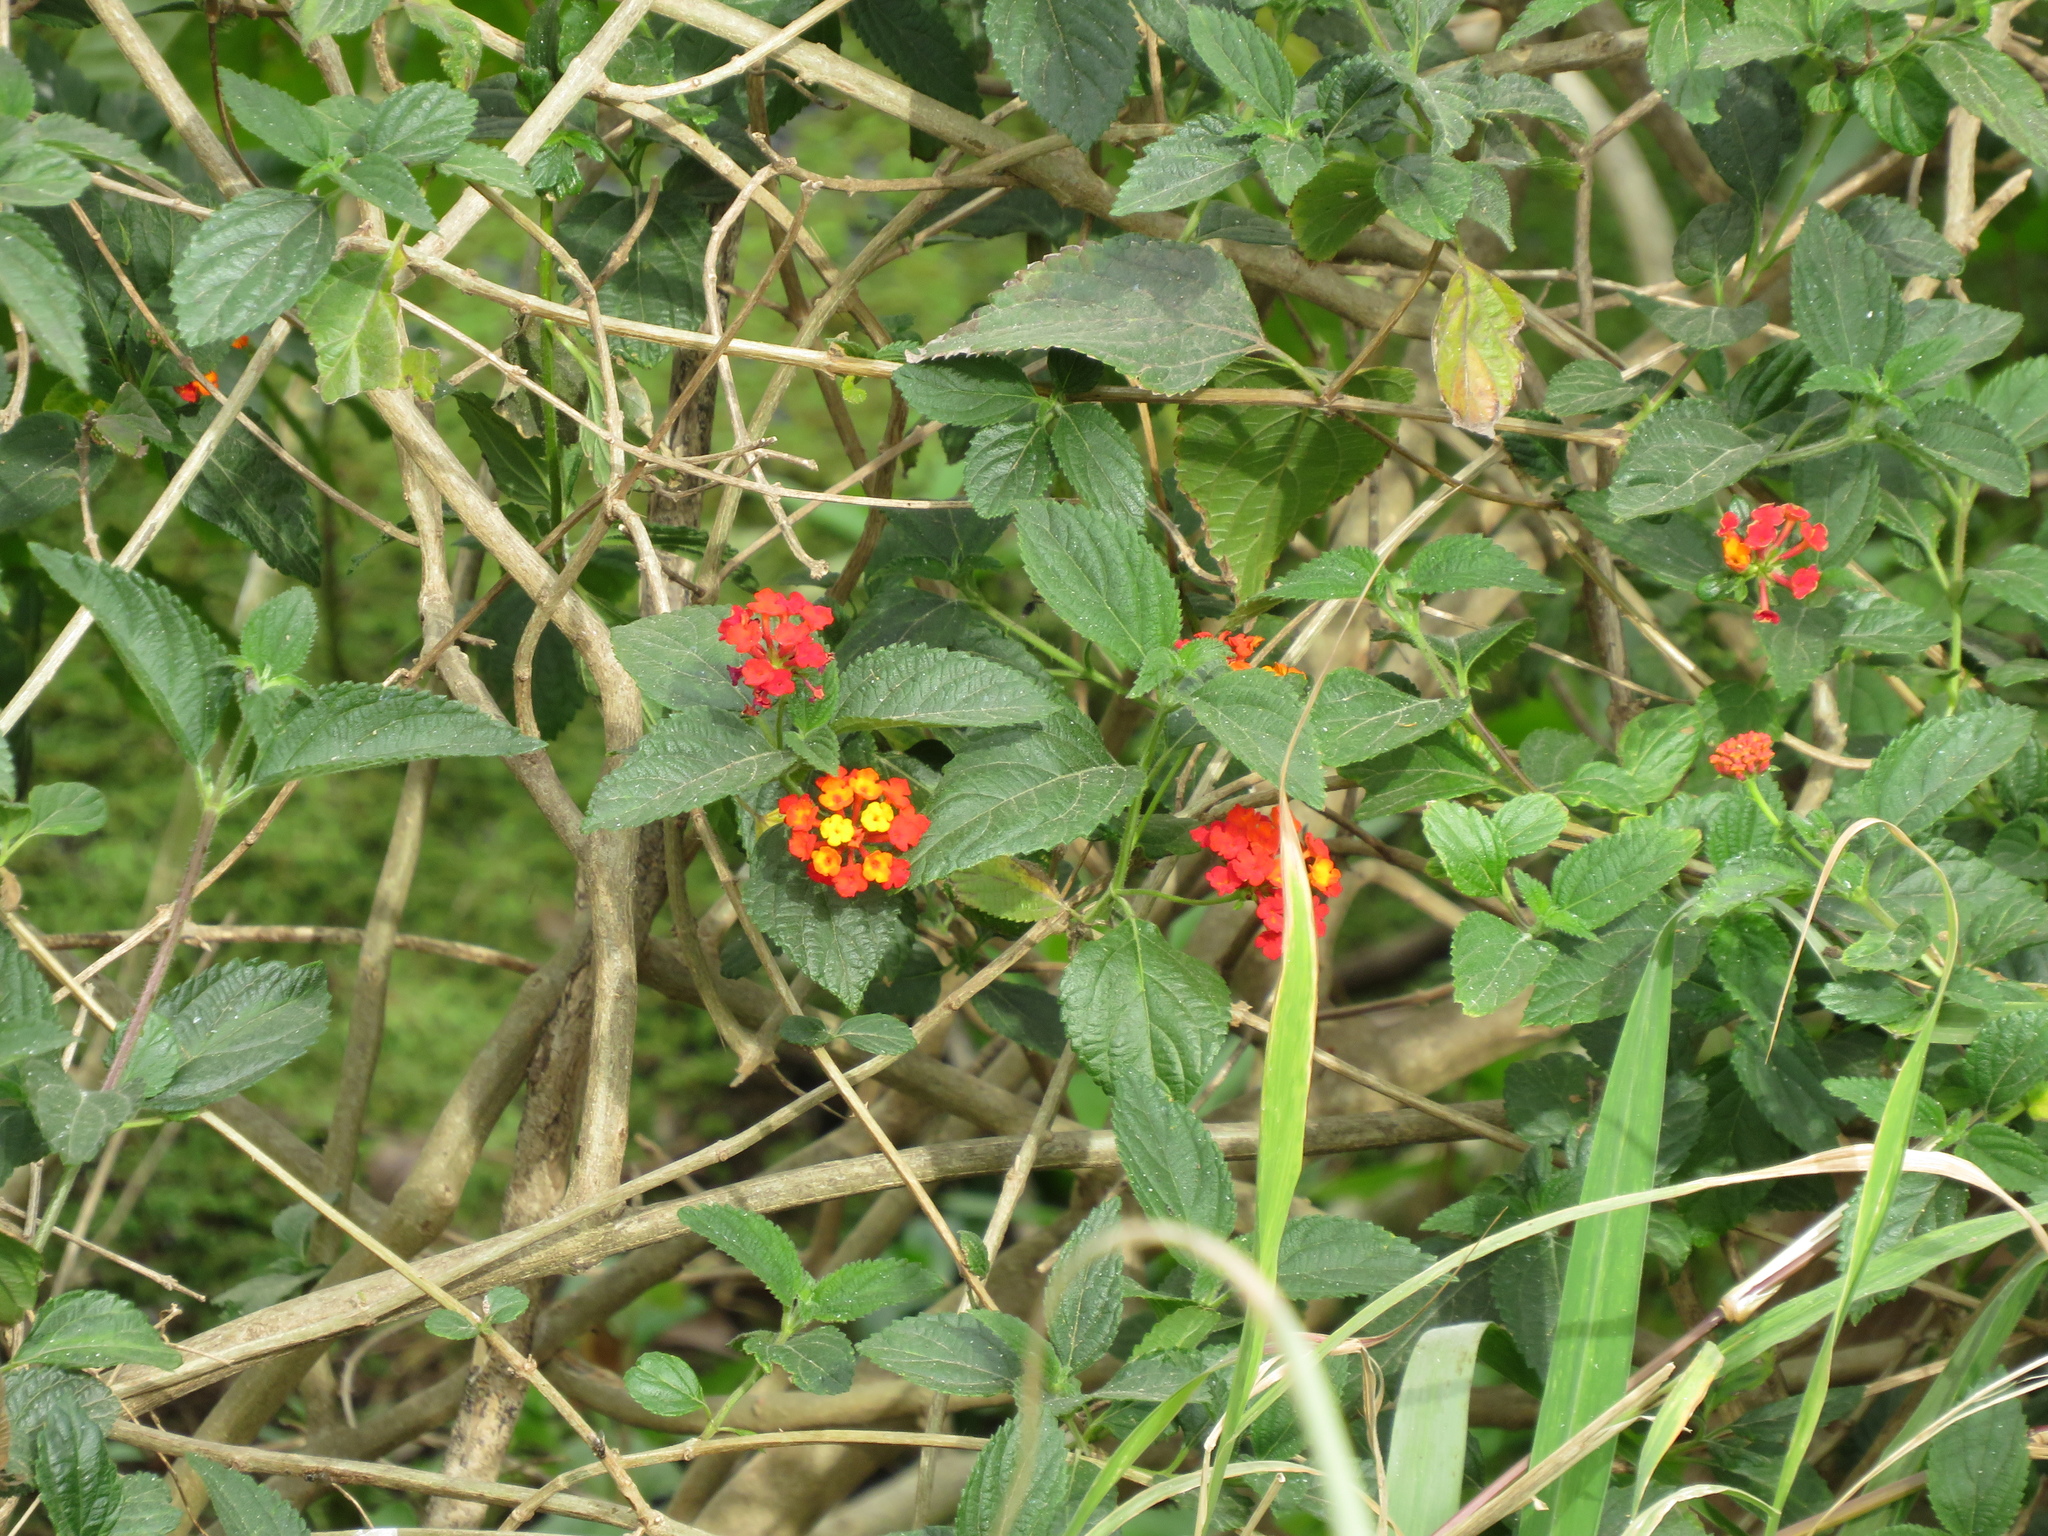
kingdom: Plantae
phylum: Tracheophyta
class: Magnoliopsida
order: Lamiales
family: Verbenaceae
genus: Lantana
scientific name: Lantana camara
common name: Lantana
